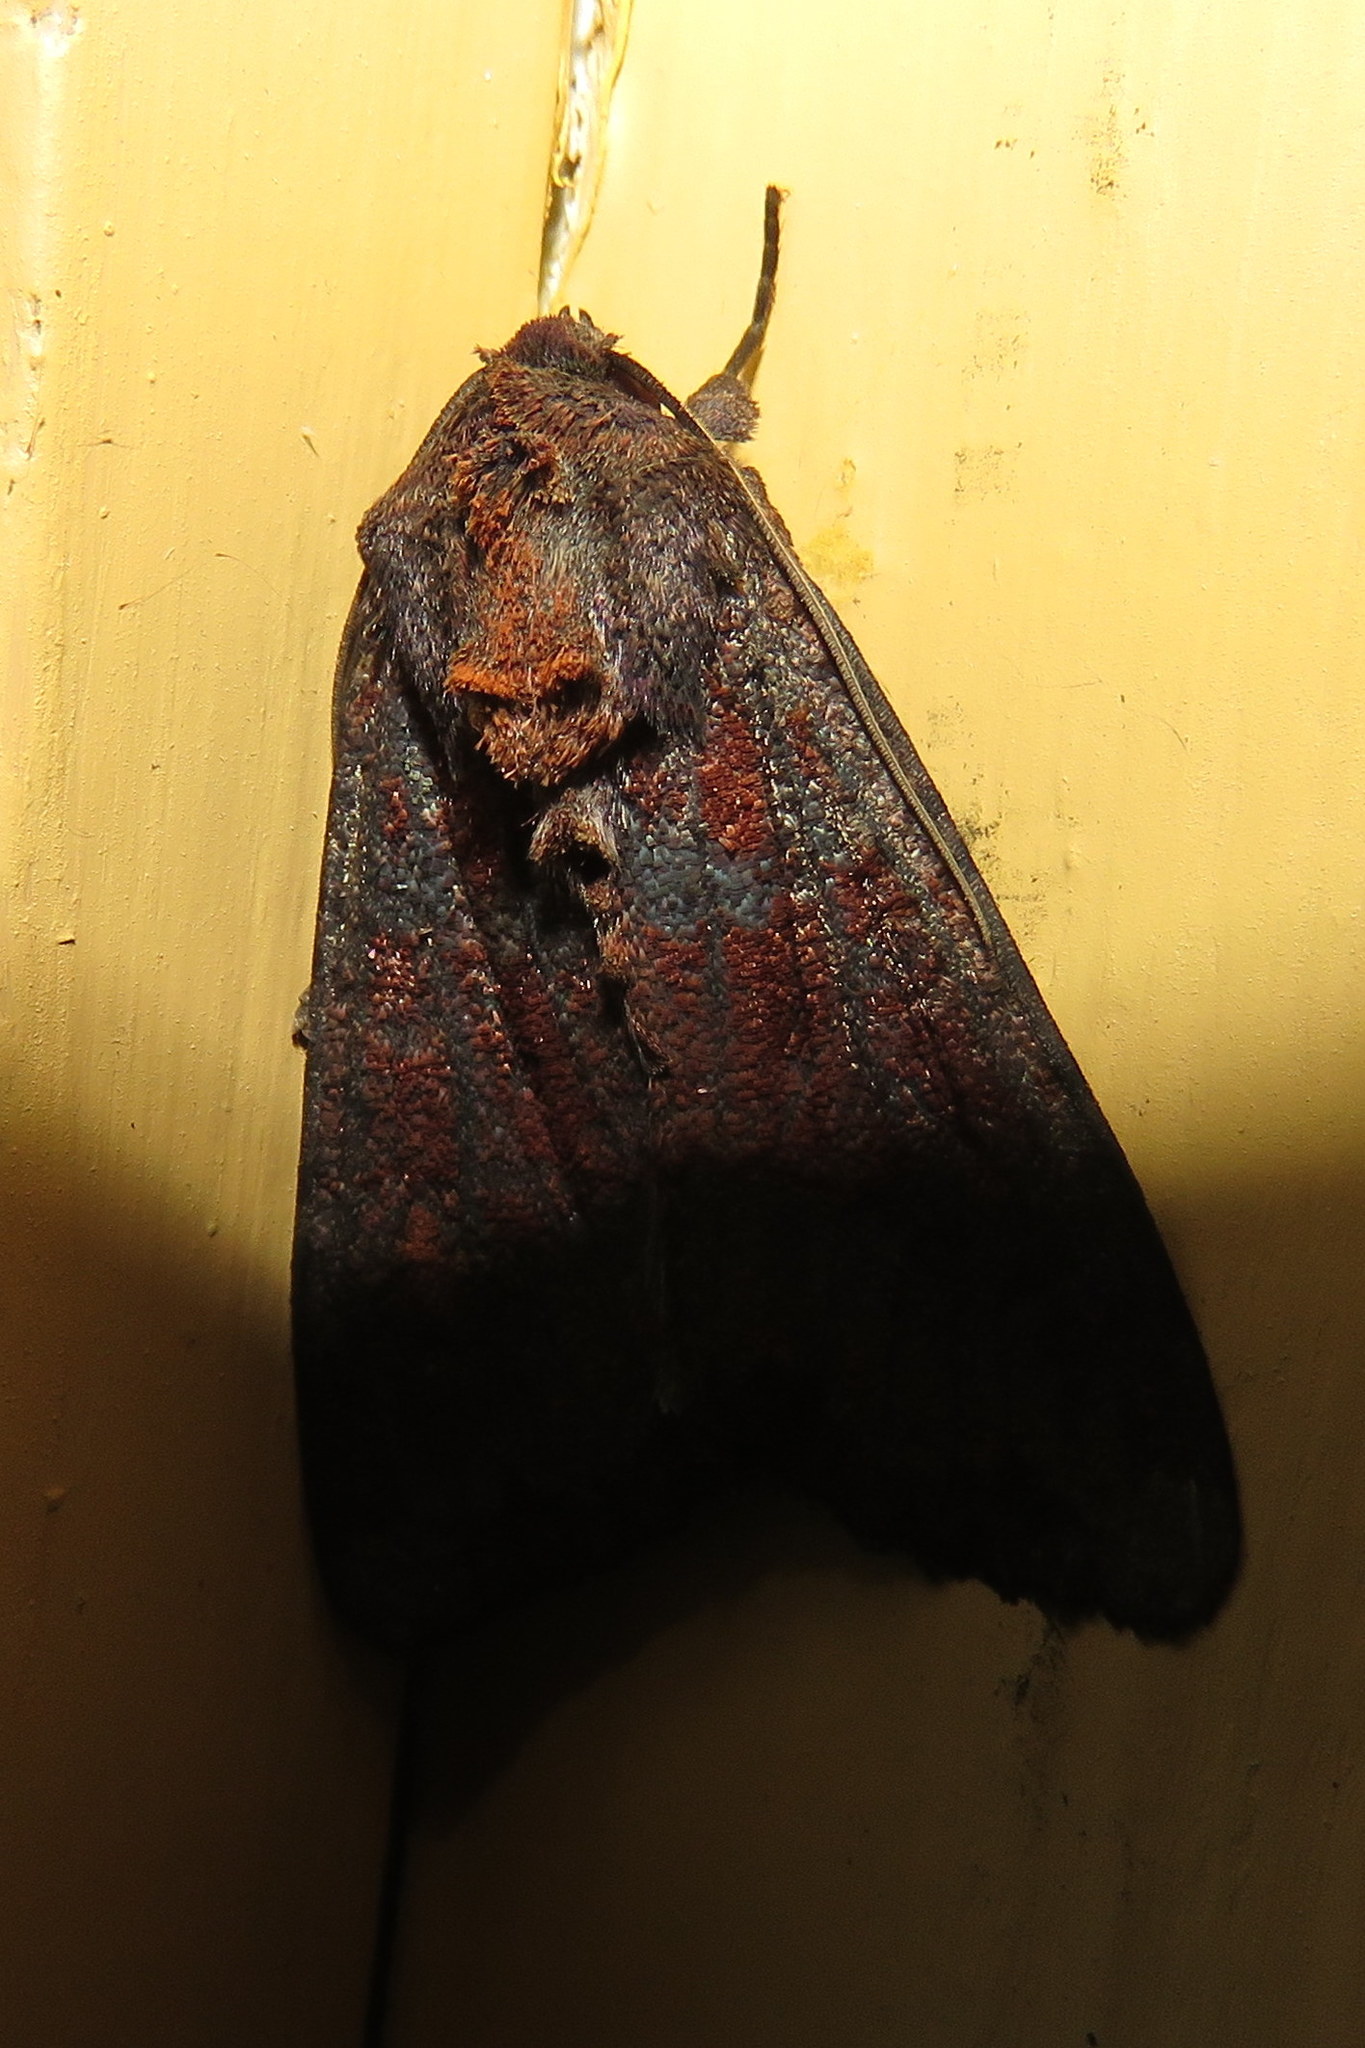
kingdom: Animalia
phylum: Arthropoda
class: Insecta
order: Lepidoptera
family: Noctuidae
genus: Apamea
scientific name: Apamea amputatrix
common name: Yellow-headed cutworm moth
